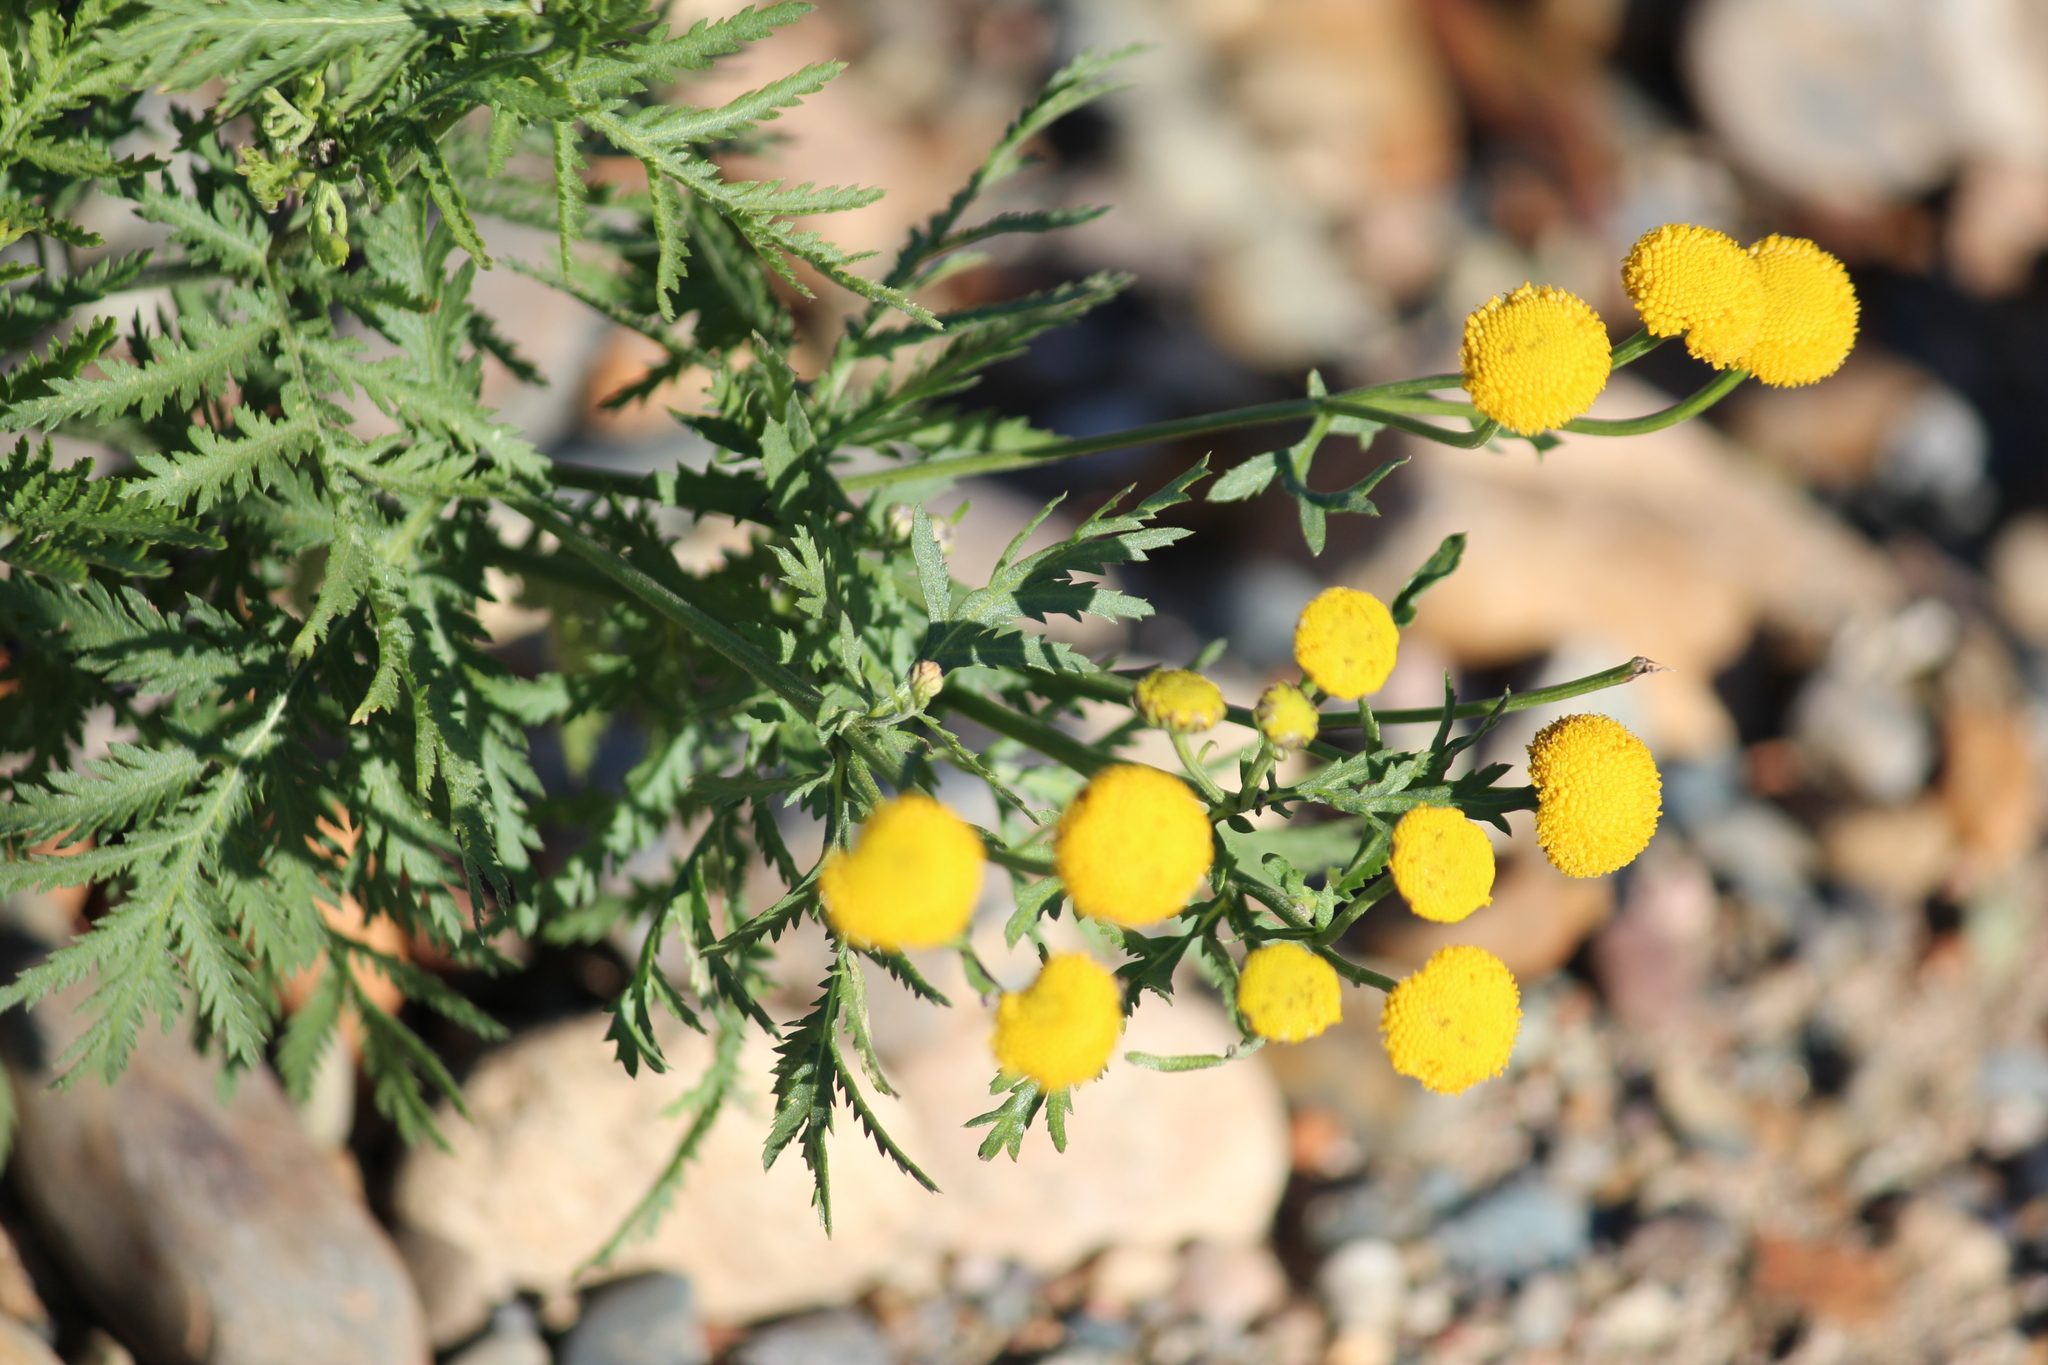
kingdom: Plantae
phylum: Tracheophyta
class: Magnoliopsida
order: Asterales
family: Asteraceae
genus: Tanacetum
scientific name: Tanacetum vulgare
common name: Common tansy
